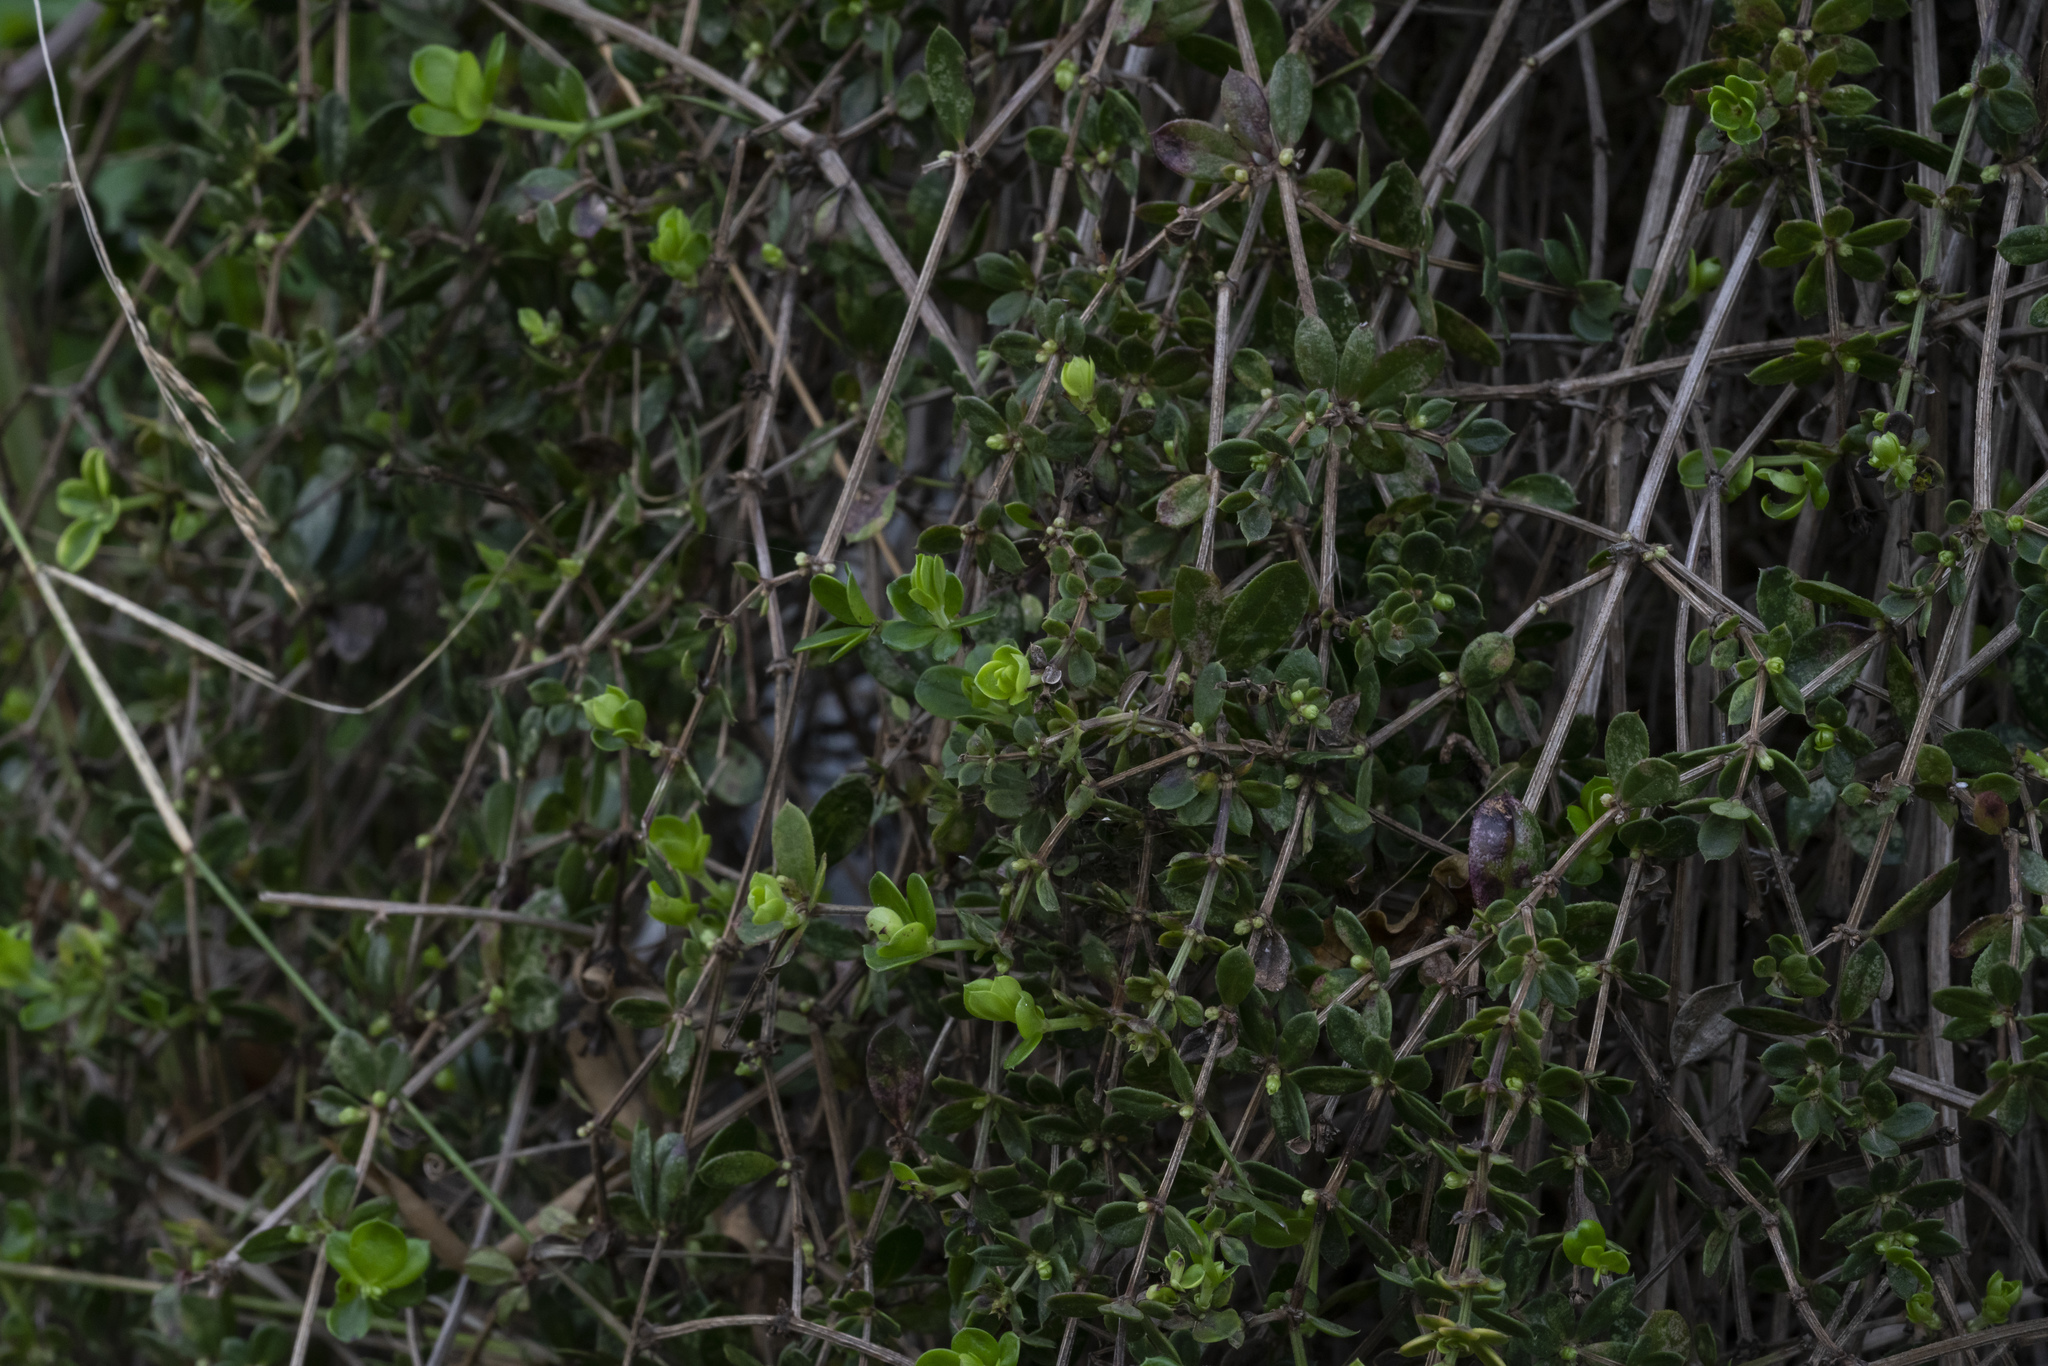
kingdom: Plantae
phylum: Tracheophyta
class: Magnoliopsida
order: Gentianales
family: Rubiaceae
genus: Rubia
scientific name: Rubia tenuifolia
